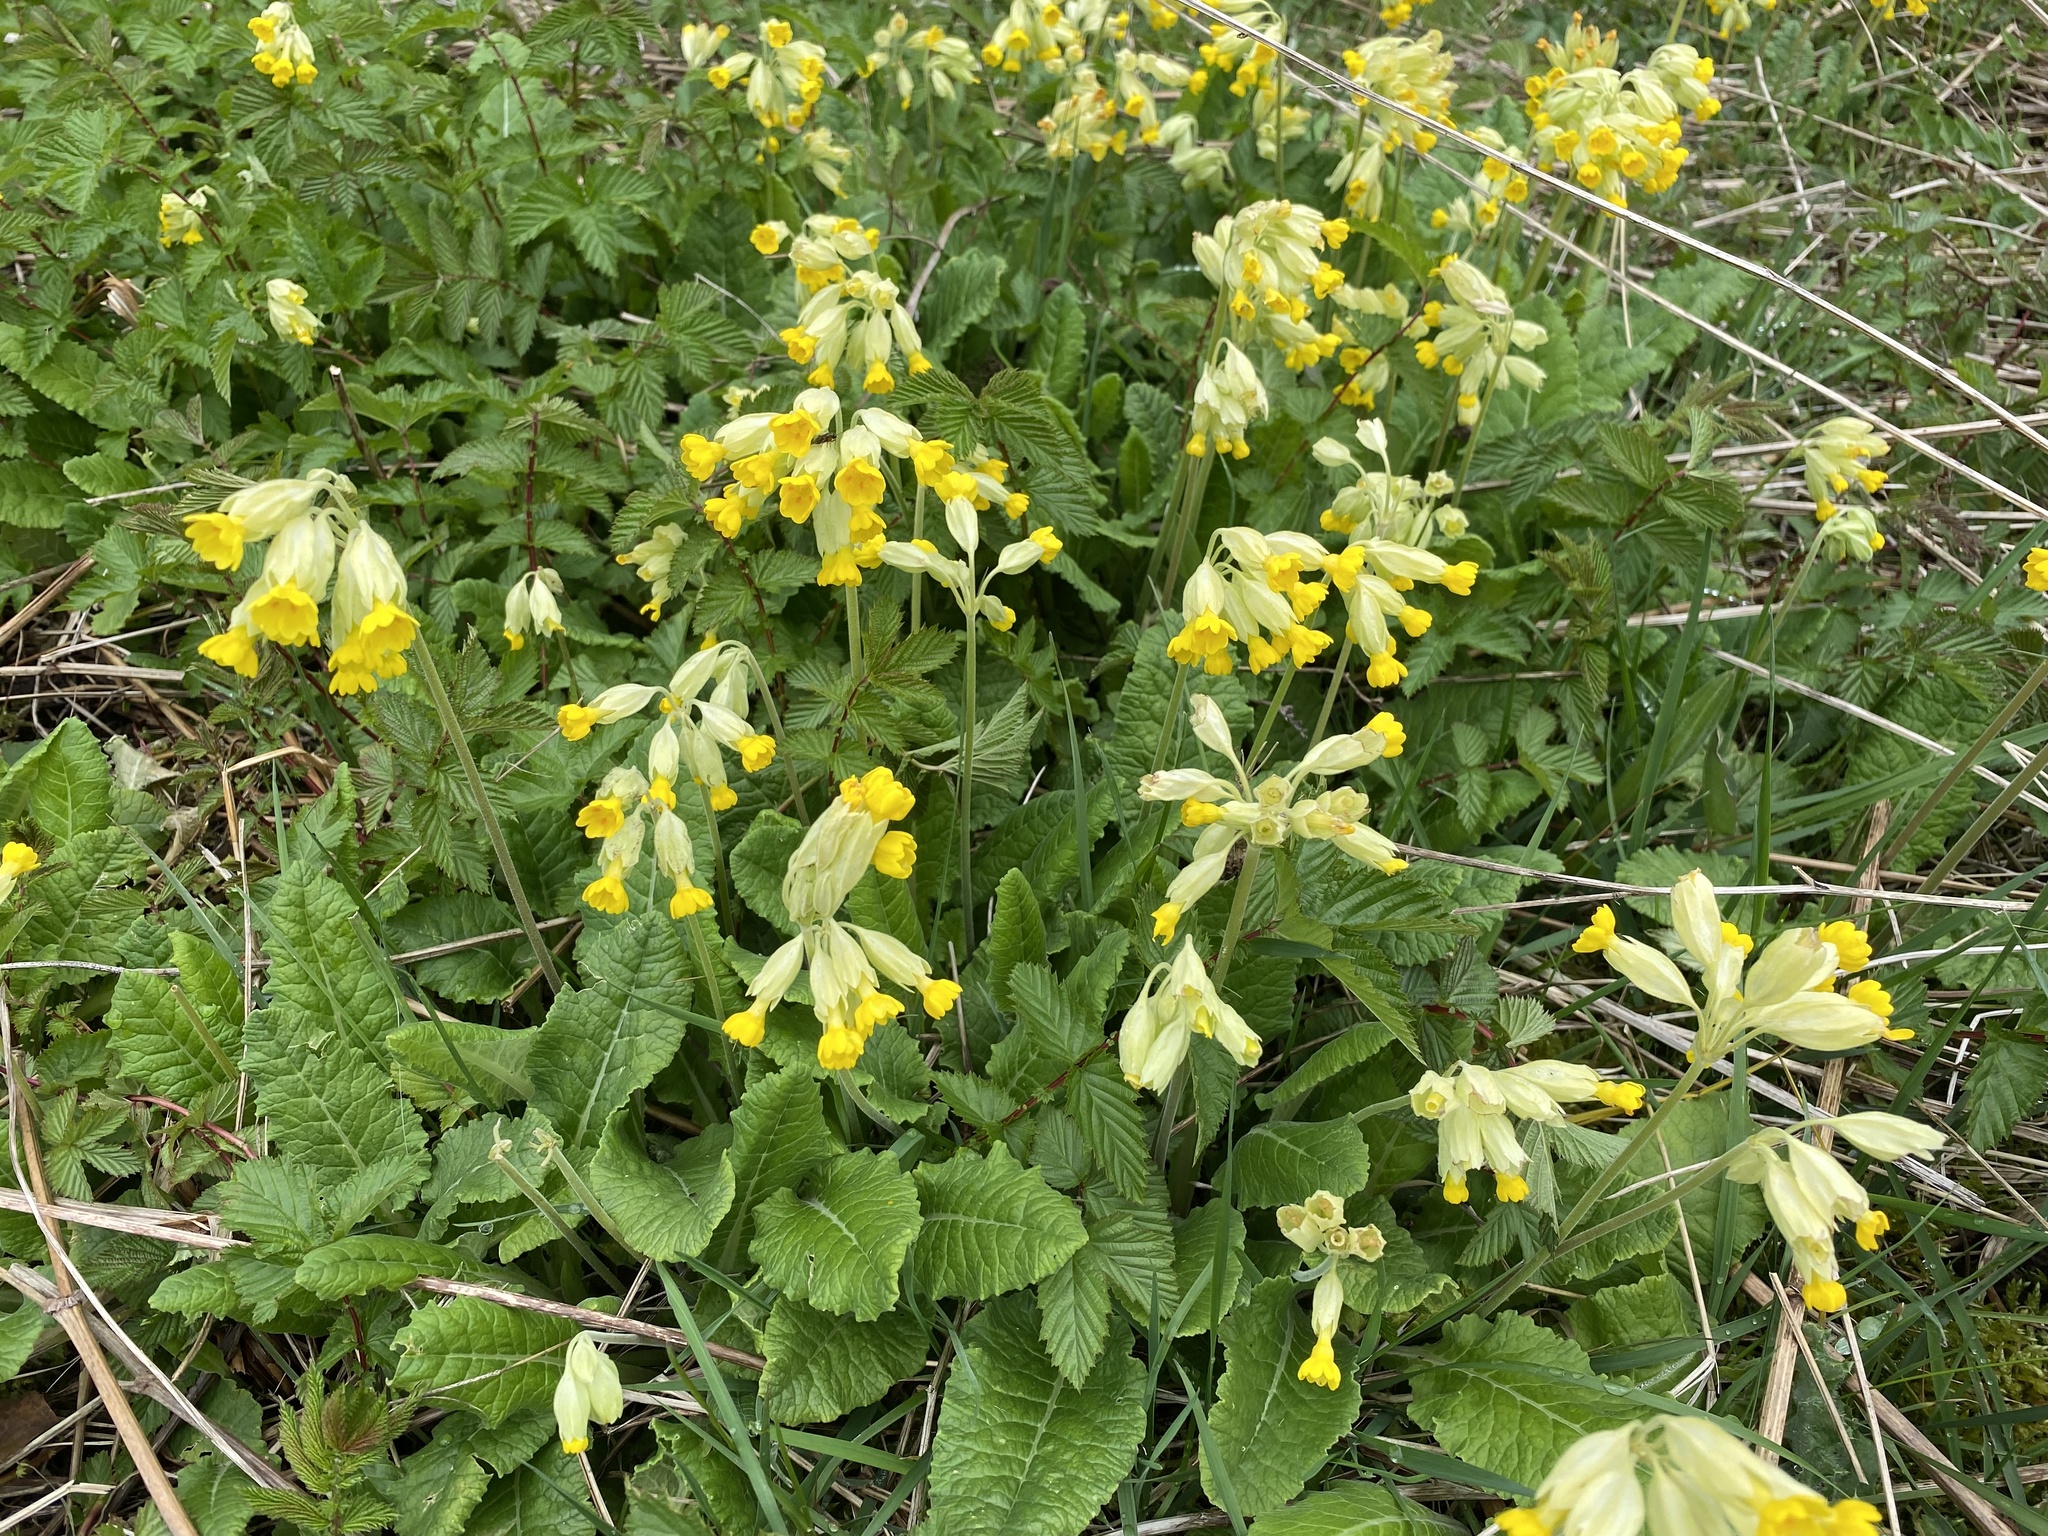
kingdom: Plantae
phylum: Tracheophyta
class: Magnoliopsida
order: Ericales
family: Primulaceae
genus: Primula
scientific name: Primula veris
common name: Cowslip
